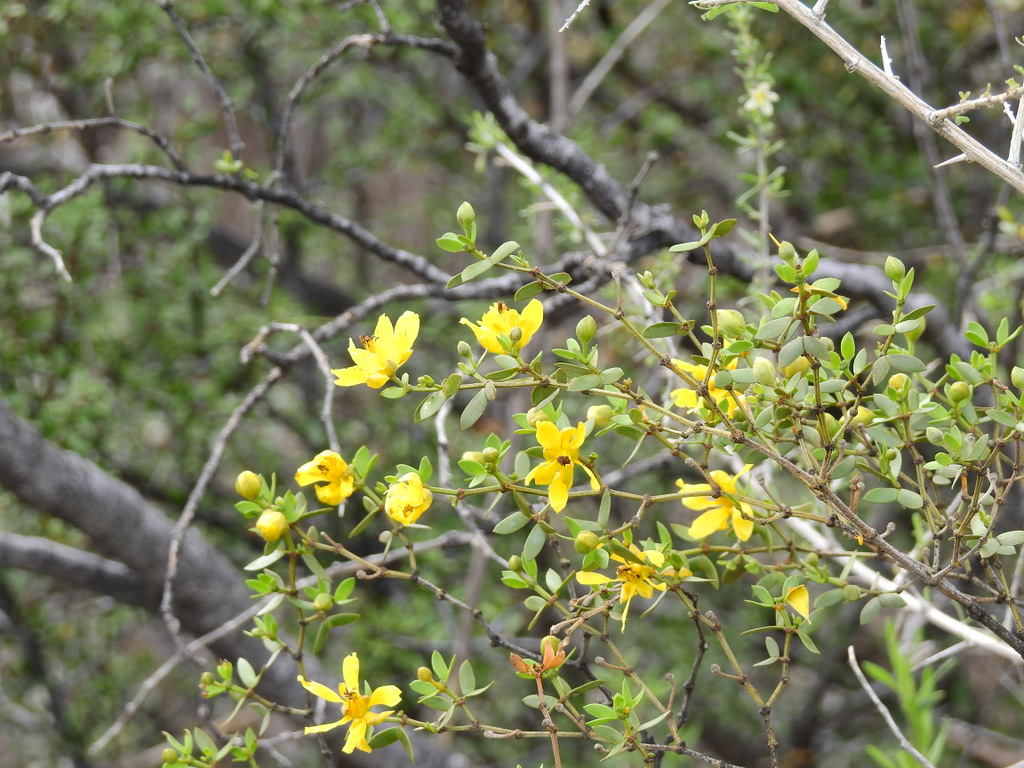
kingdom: Plantae
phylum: Tracheophyta
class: Magnoliopsida
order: Zygophyllales
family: Zygophyllaceae
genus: Larrea
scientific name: Larrea divaricata
